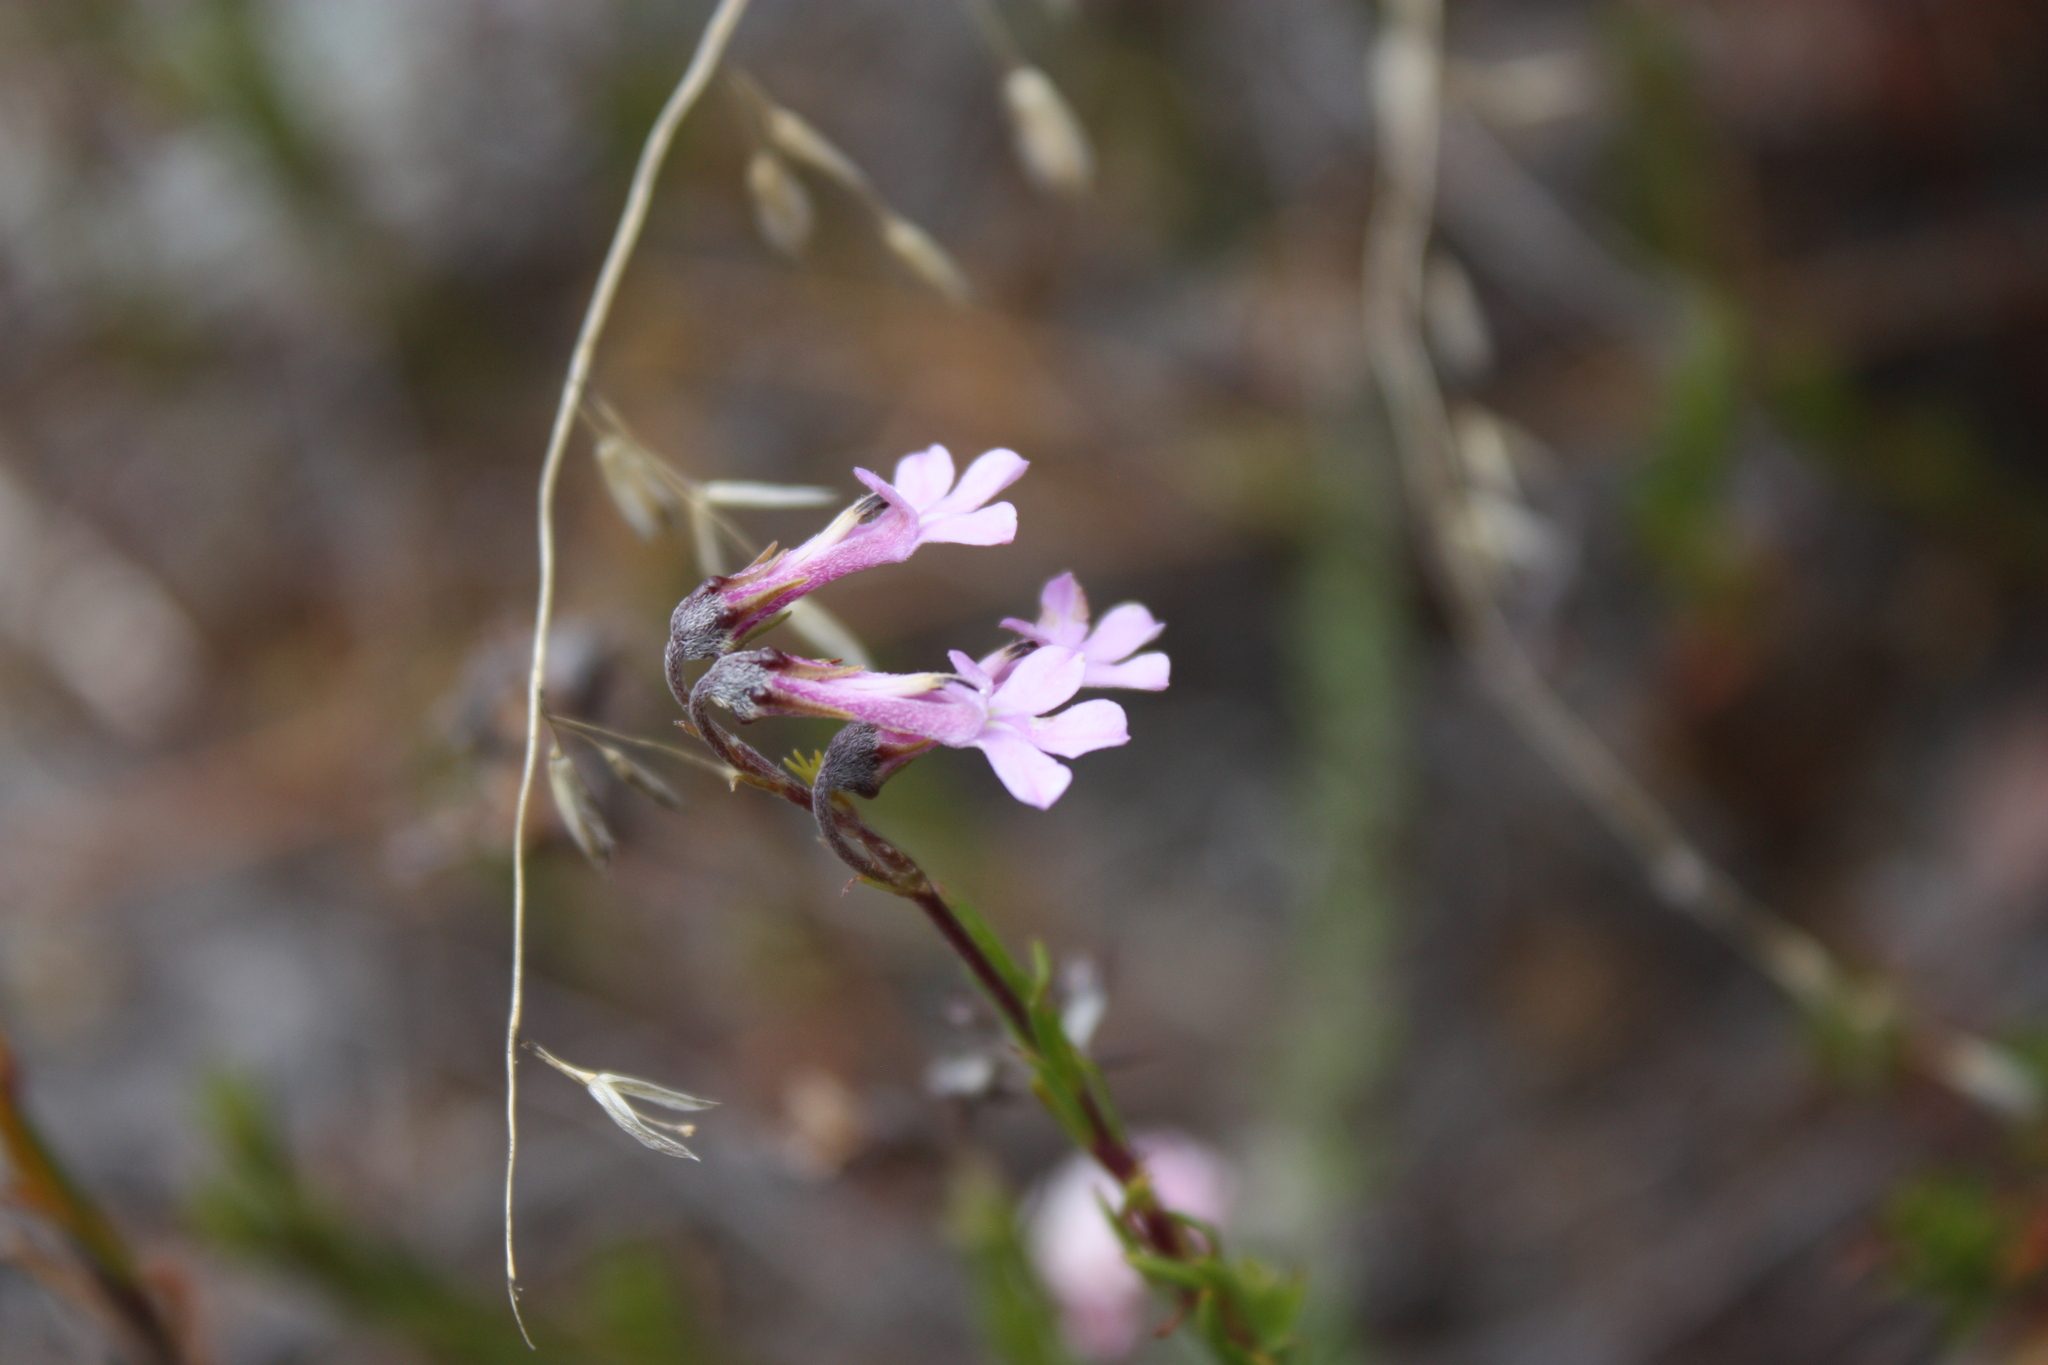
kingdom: Plantae
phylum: Tracheophyta
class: Magnoliopsida
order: Asterales
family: Campanulaceae
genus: Lobelia
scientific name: Lobelia pinifolia
